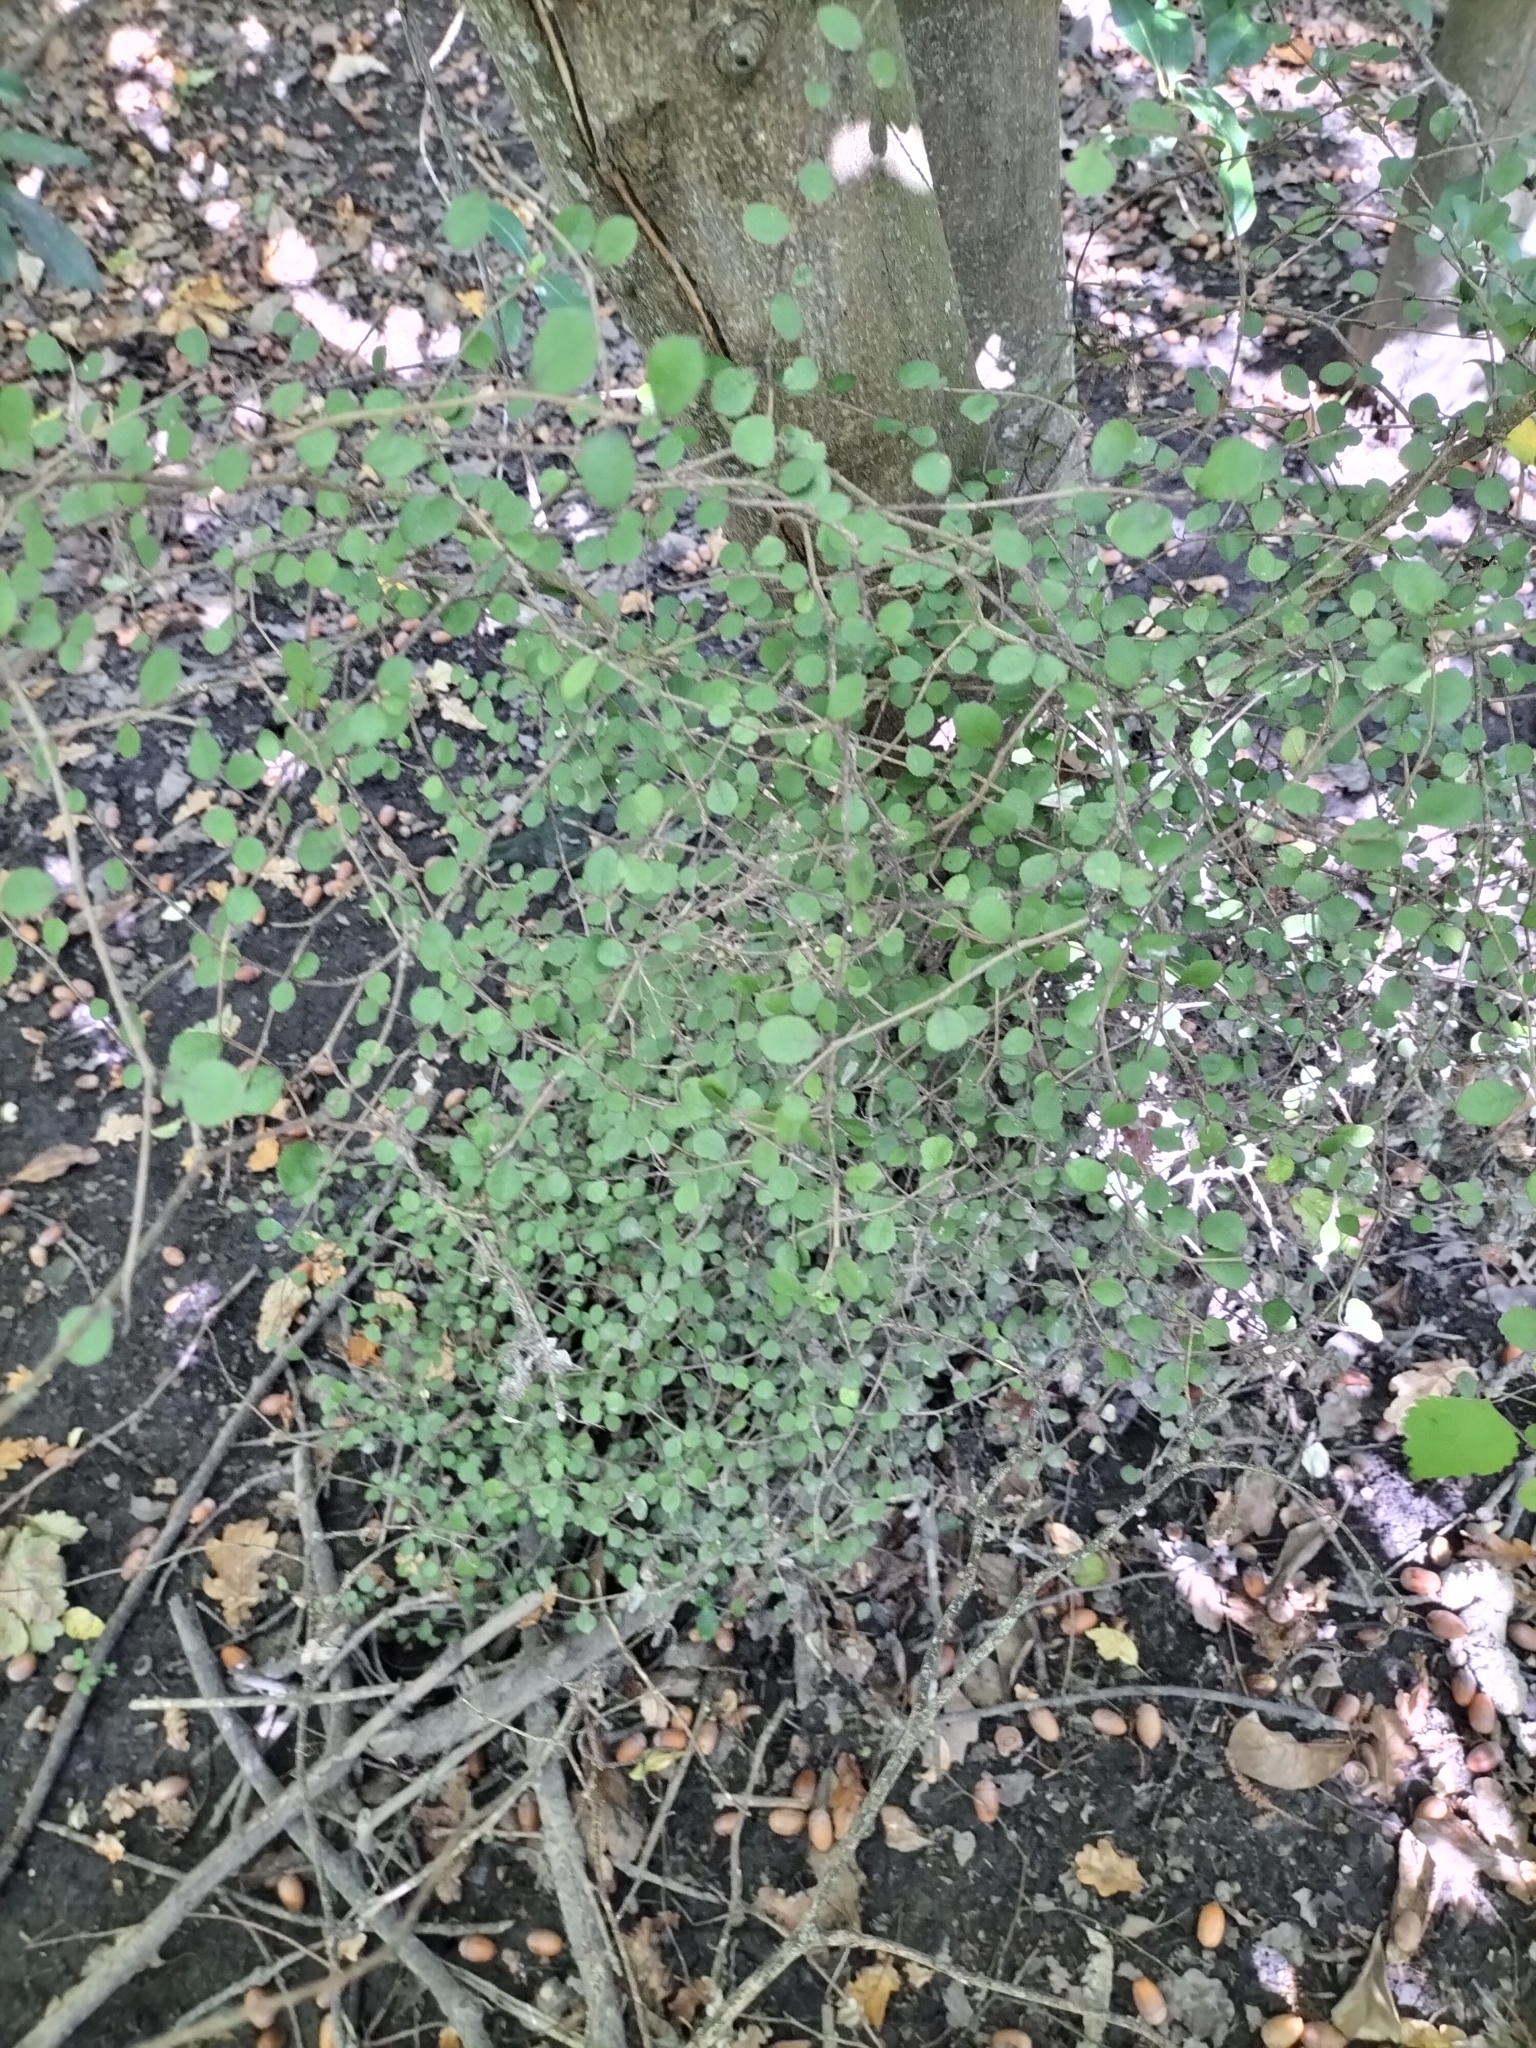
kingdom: Plantae
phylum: Tracheophyta
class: Magnoliopsida
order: Rosales
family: Moraceae
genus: Paratrophis
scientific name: Paratrophis microphylla
